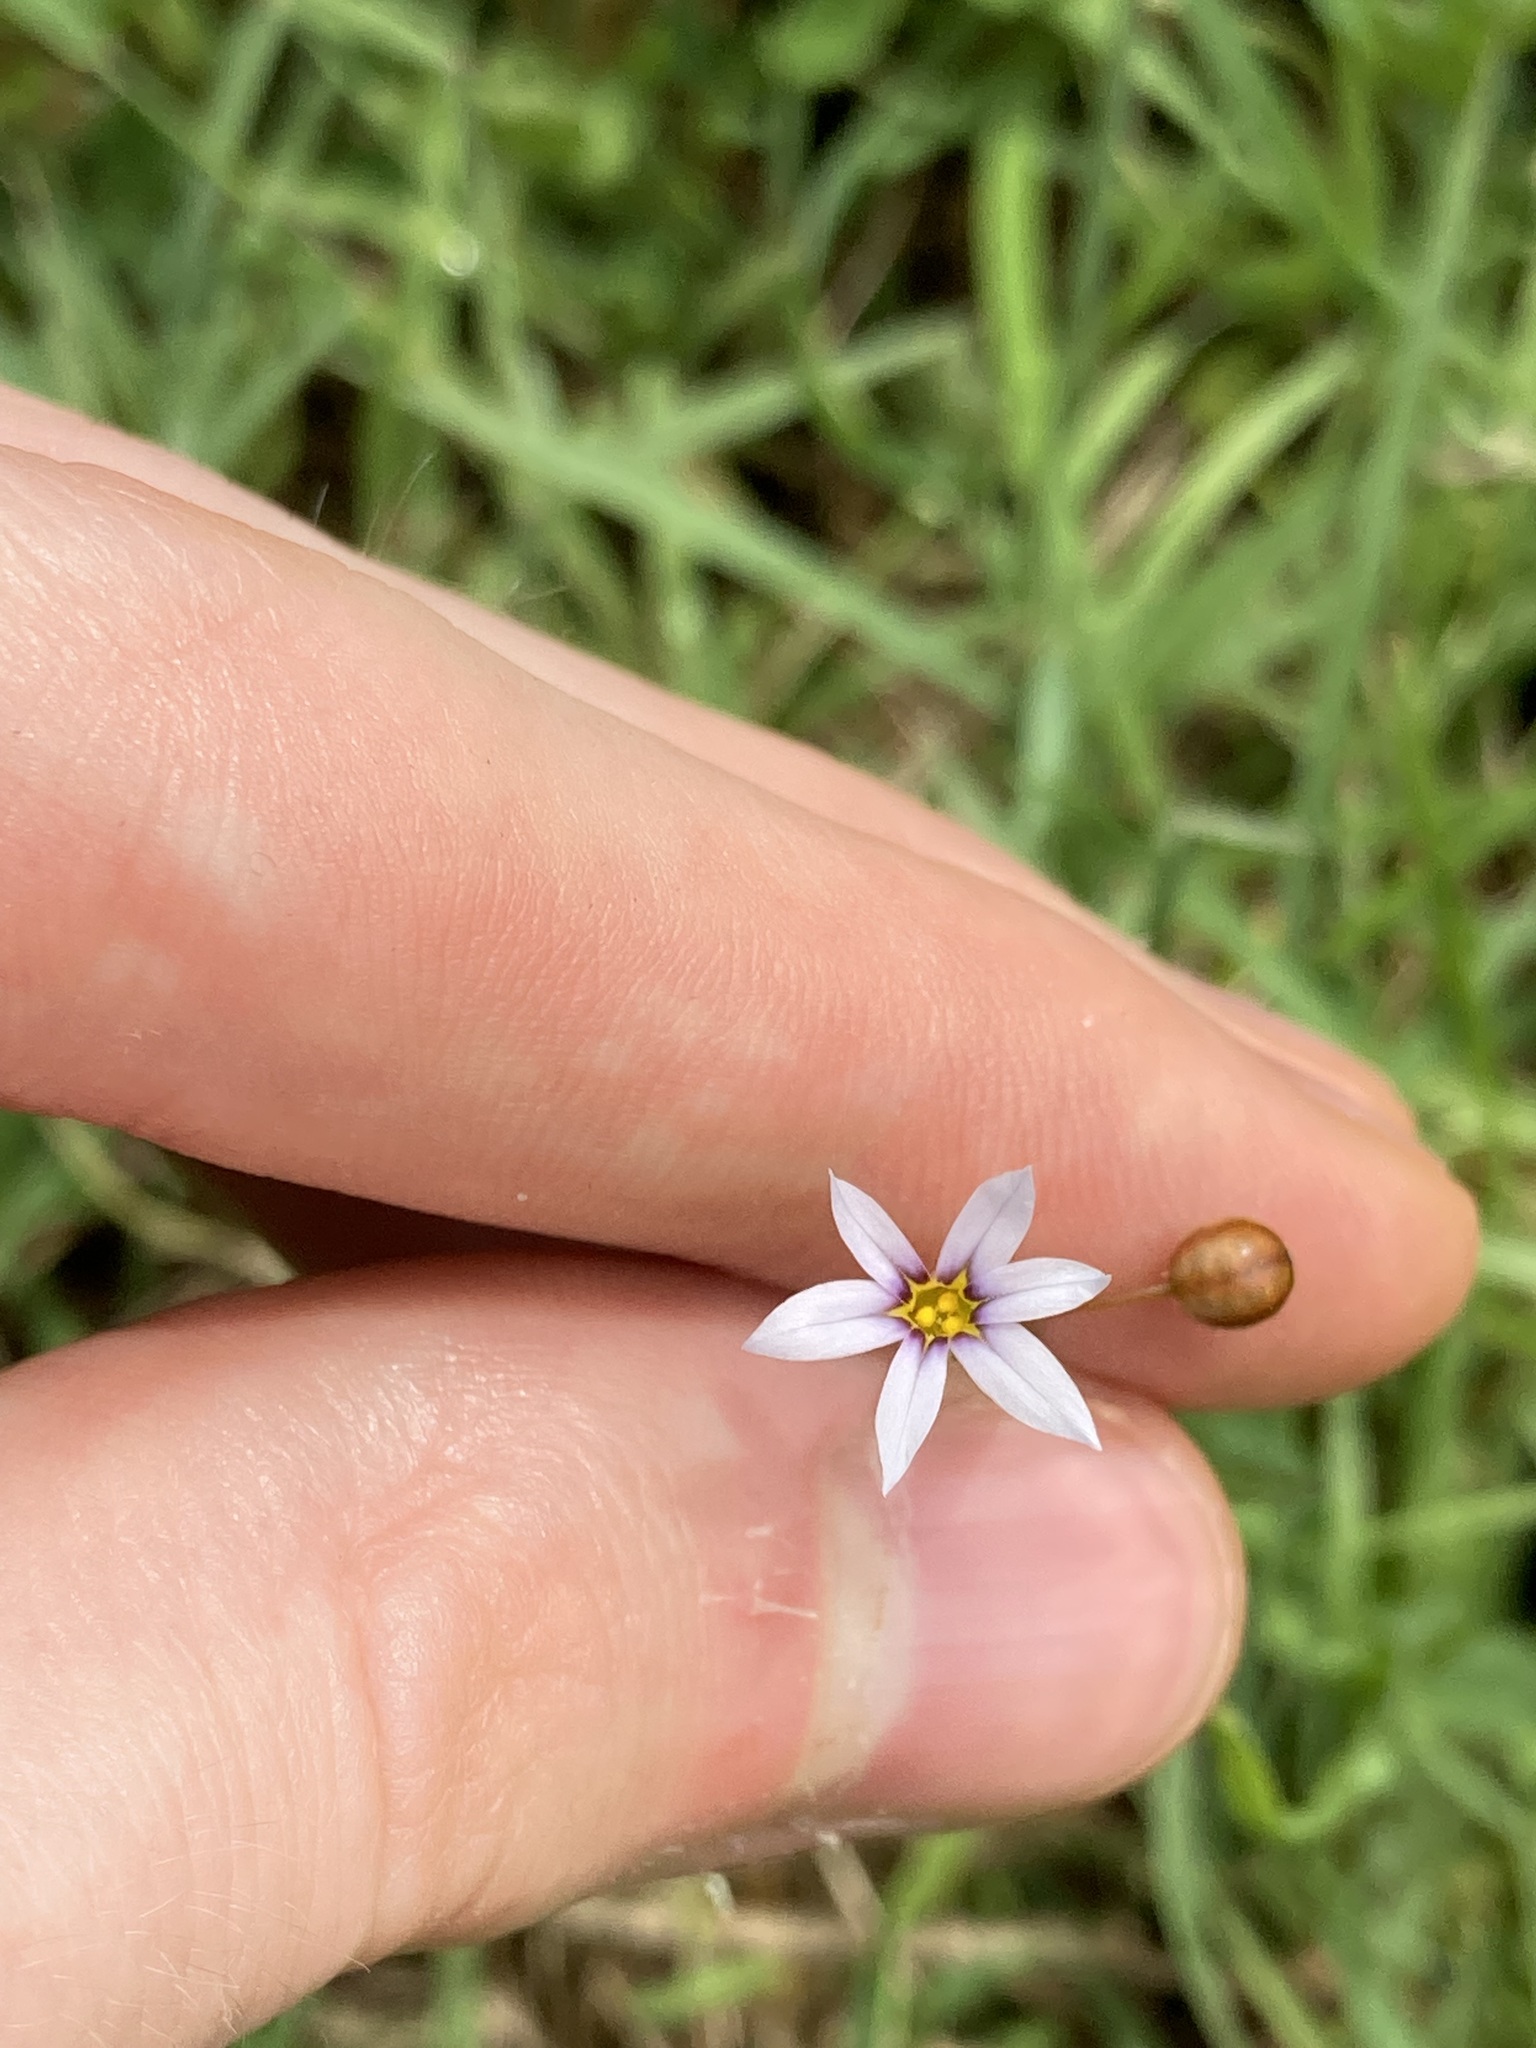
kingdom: Plantae
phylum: Tracheophyta
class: Liliopsida
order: Asparagales
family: Iridaceae
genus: Sisyrinchium
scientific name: Sisyrinchium micranthum
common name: Bermuda pigroot
